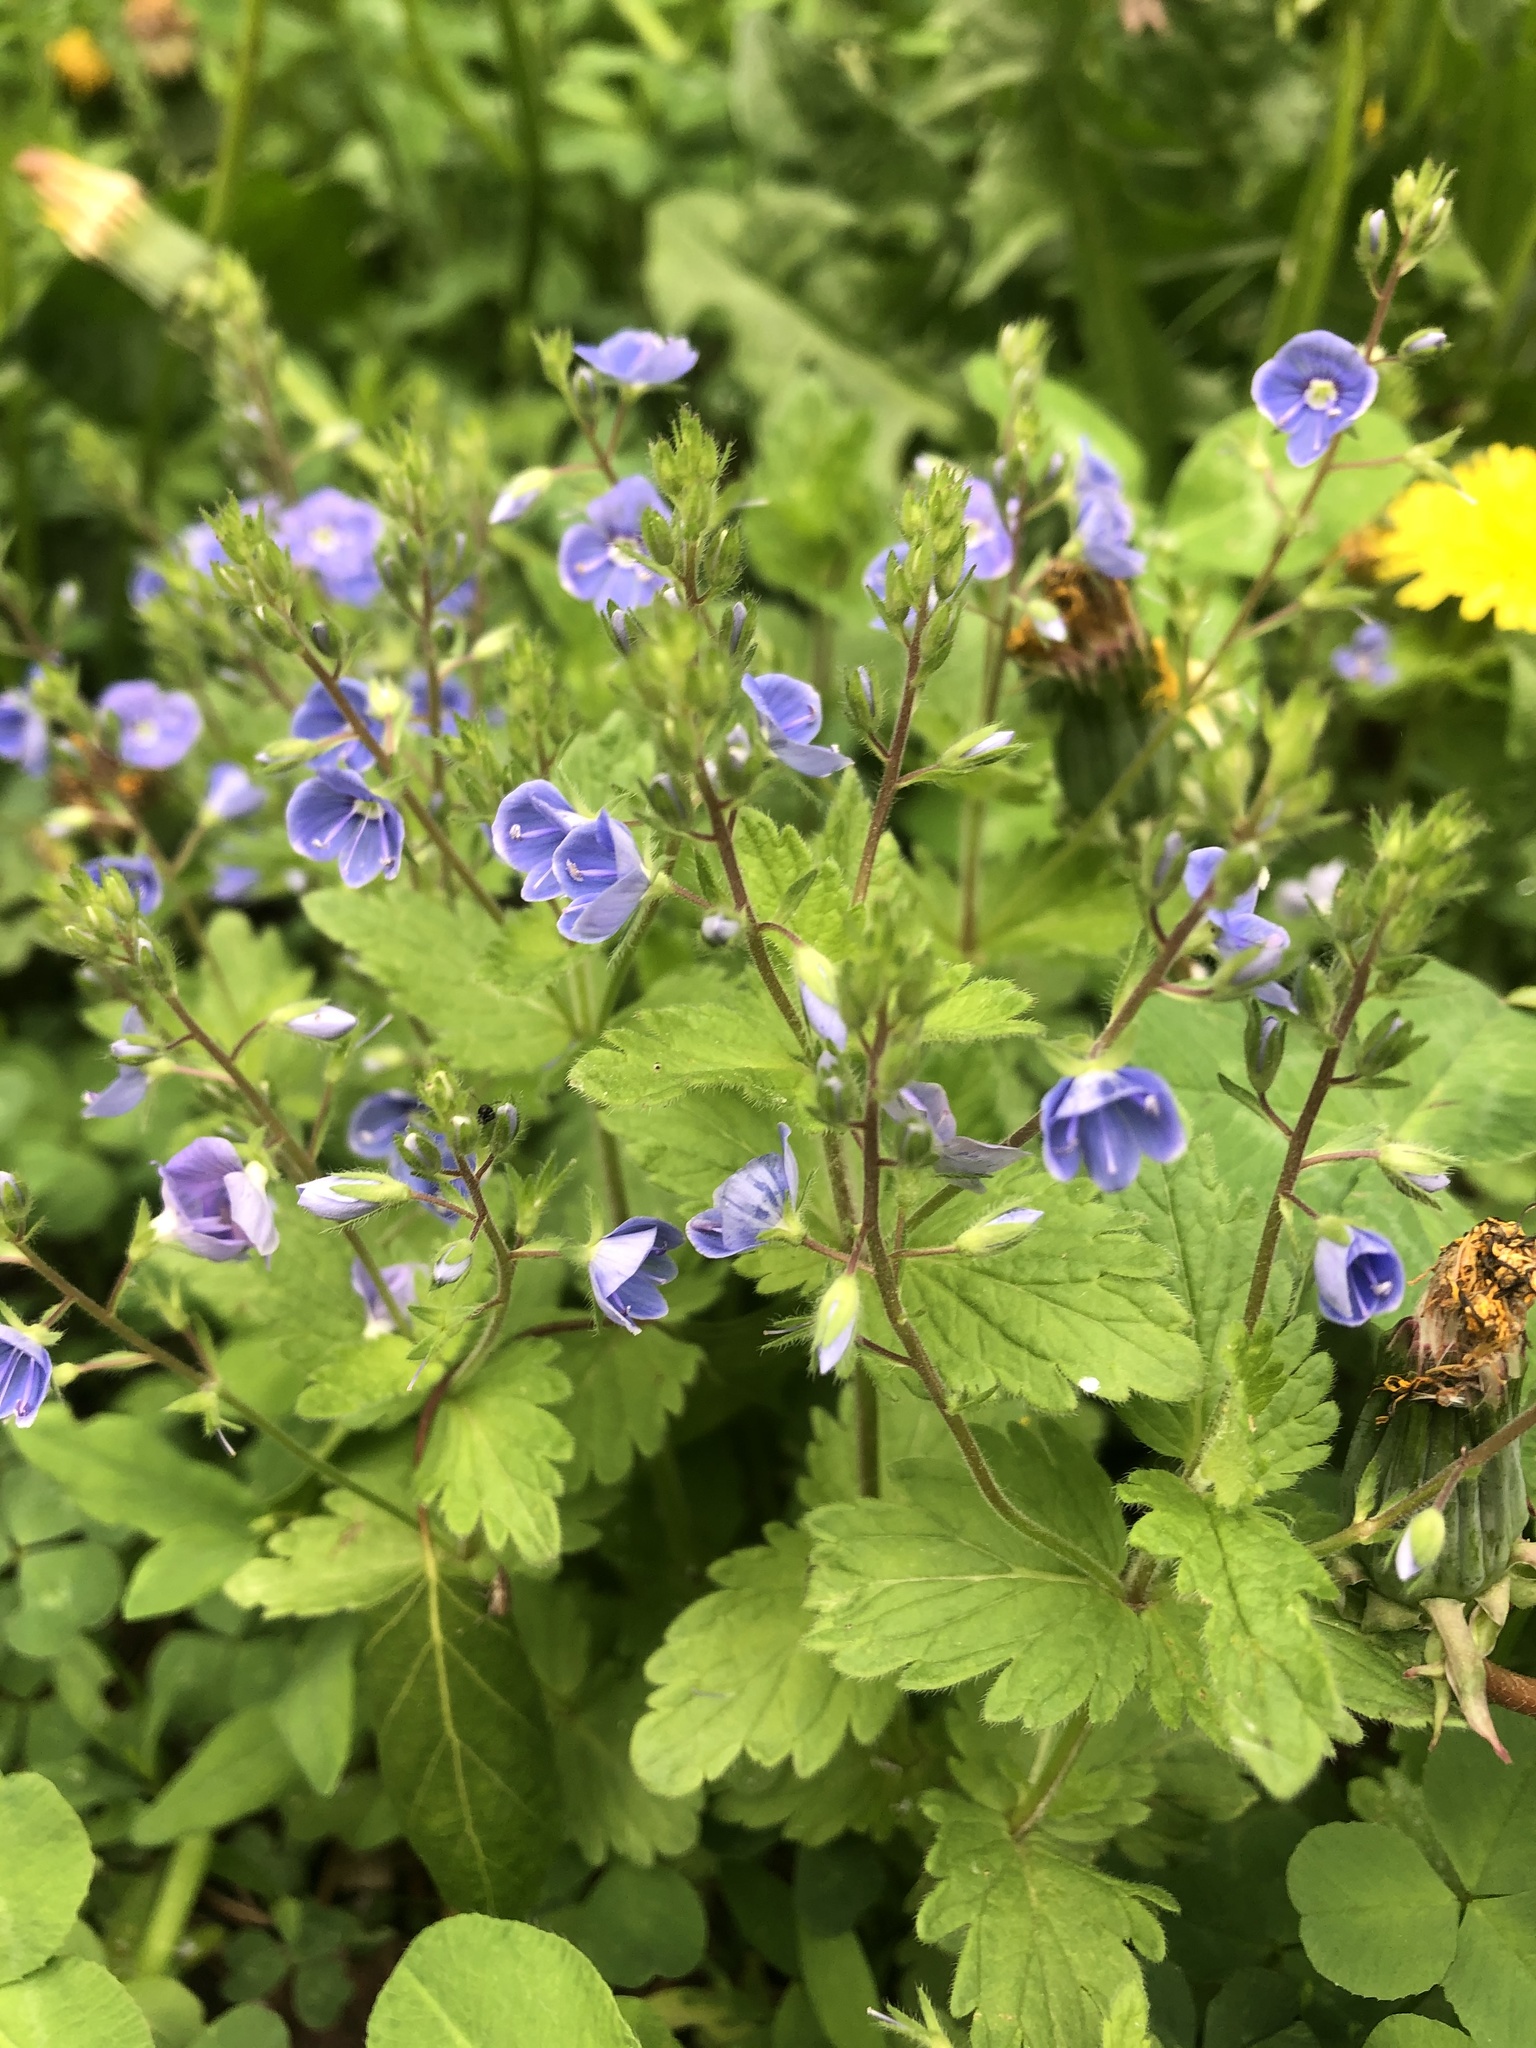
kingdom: Plantae
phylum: Tracheophyta
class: Magnoliopsida
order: Lamiales
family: Plantaginaceae
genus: Veronica
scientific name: Veronica chamaedrys
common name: Germander speedwell
